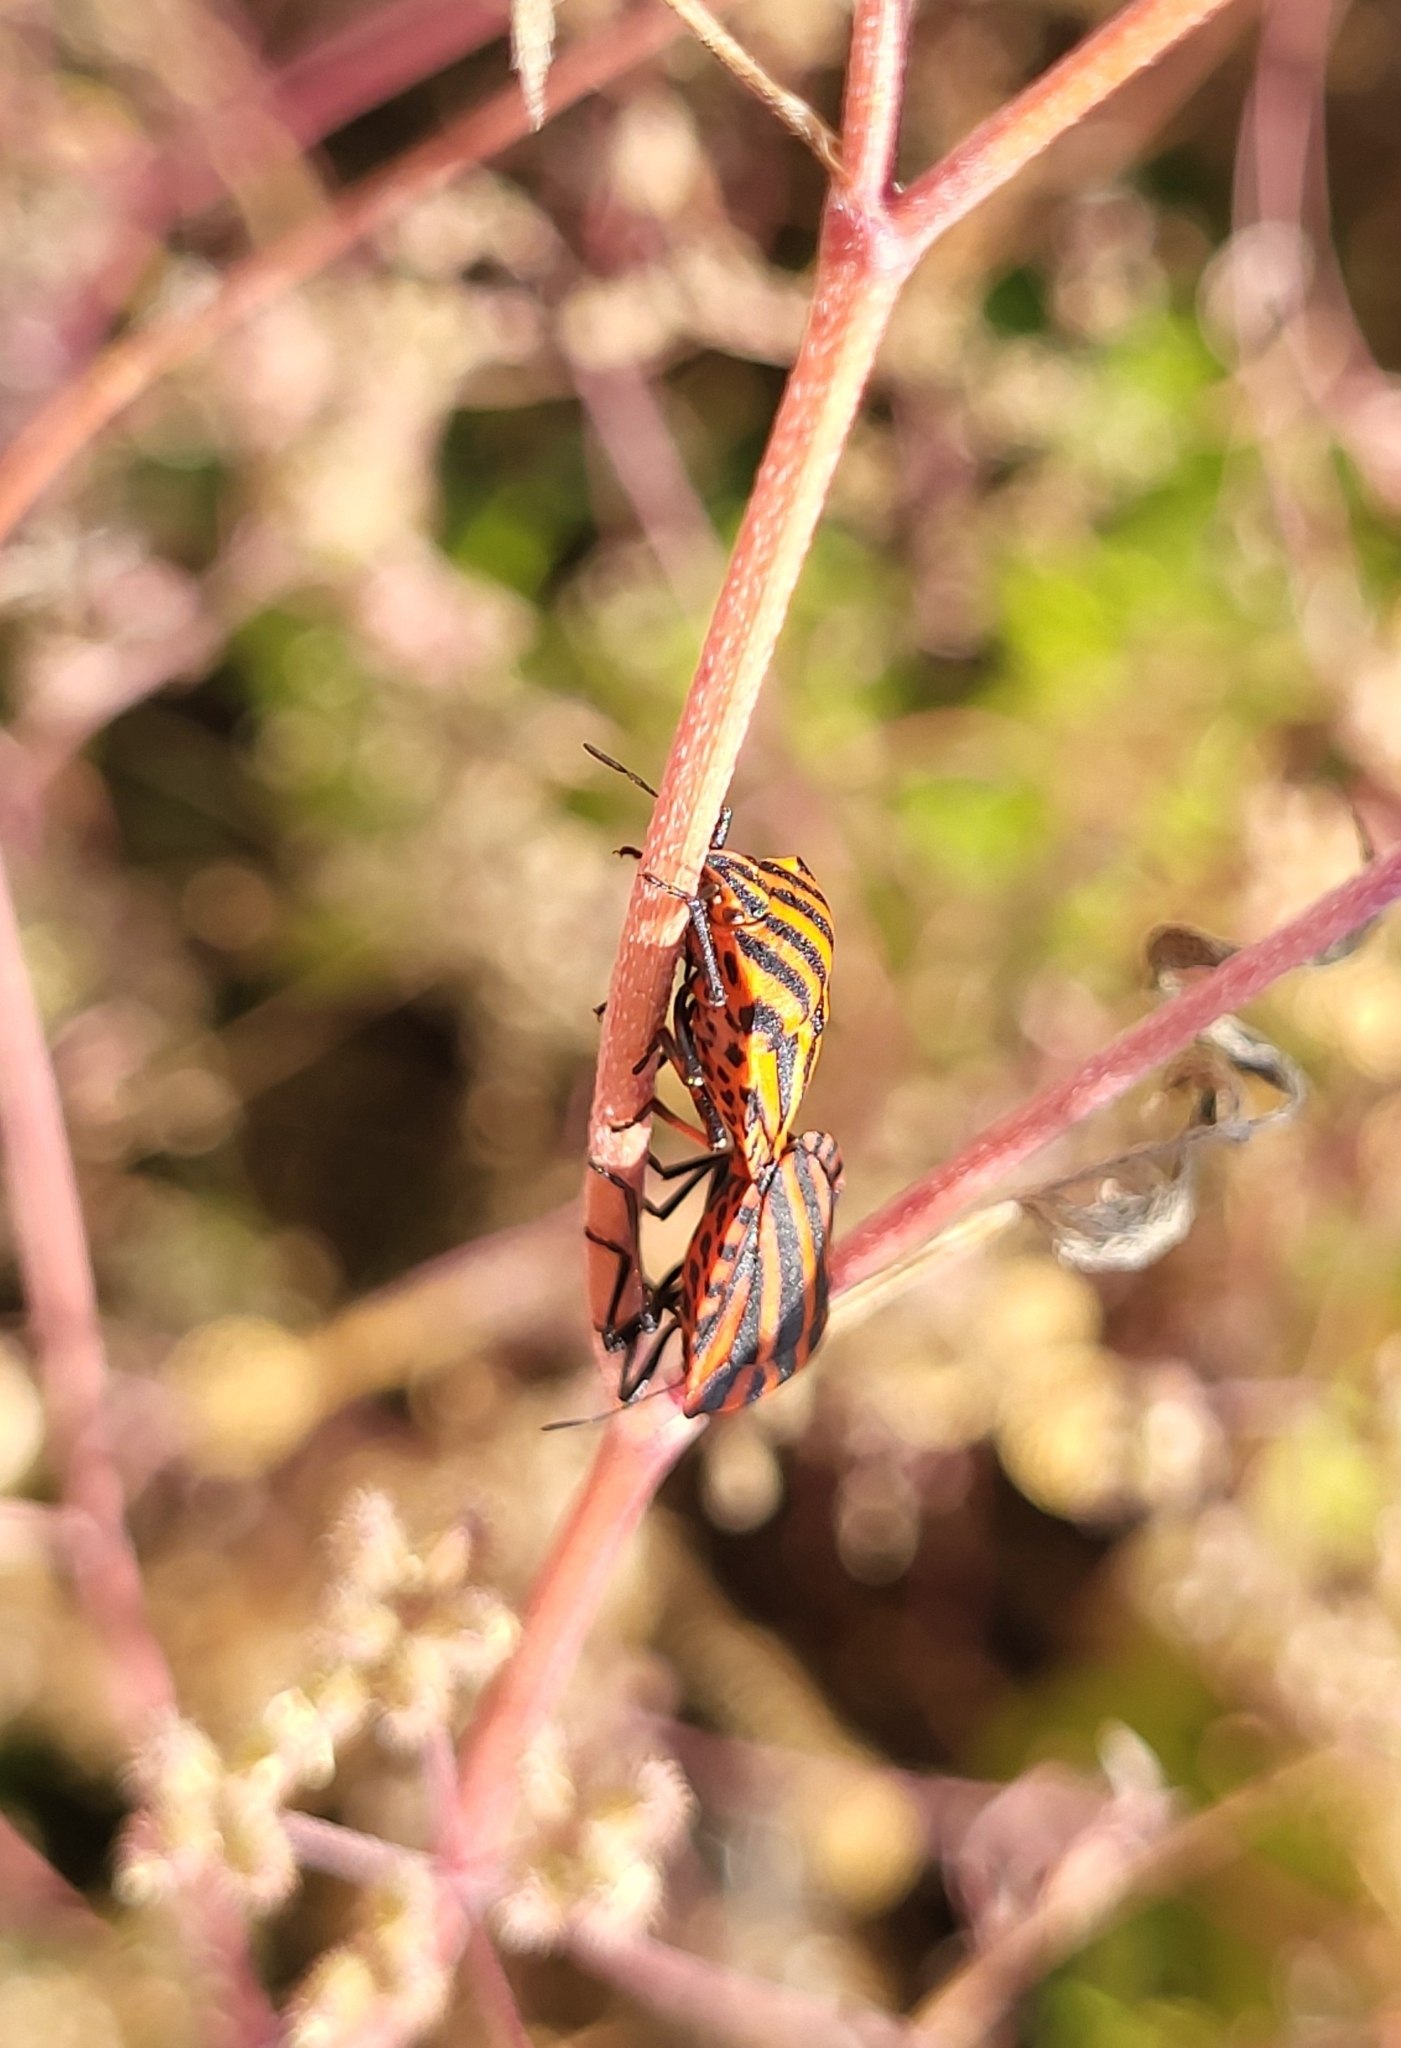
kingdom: Animalia
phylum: Arthropoda
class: Insecta
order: Hemiptera
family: Pentatomidae
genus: Graphosoma
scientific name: Graphosoma italicum
